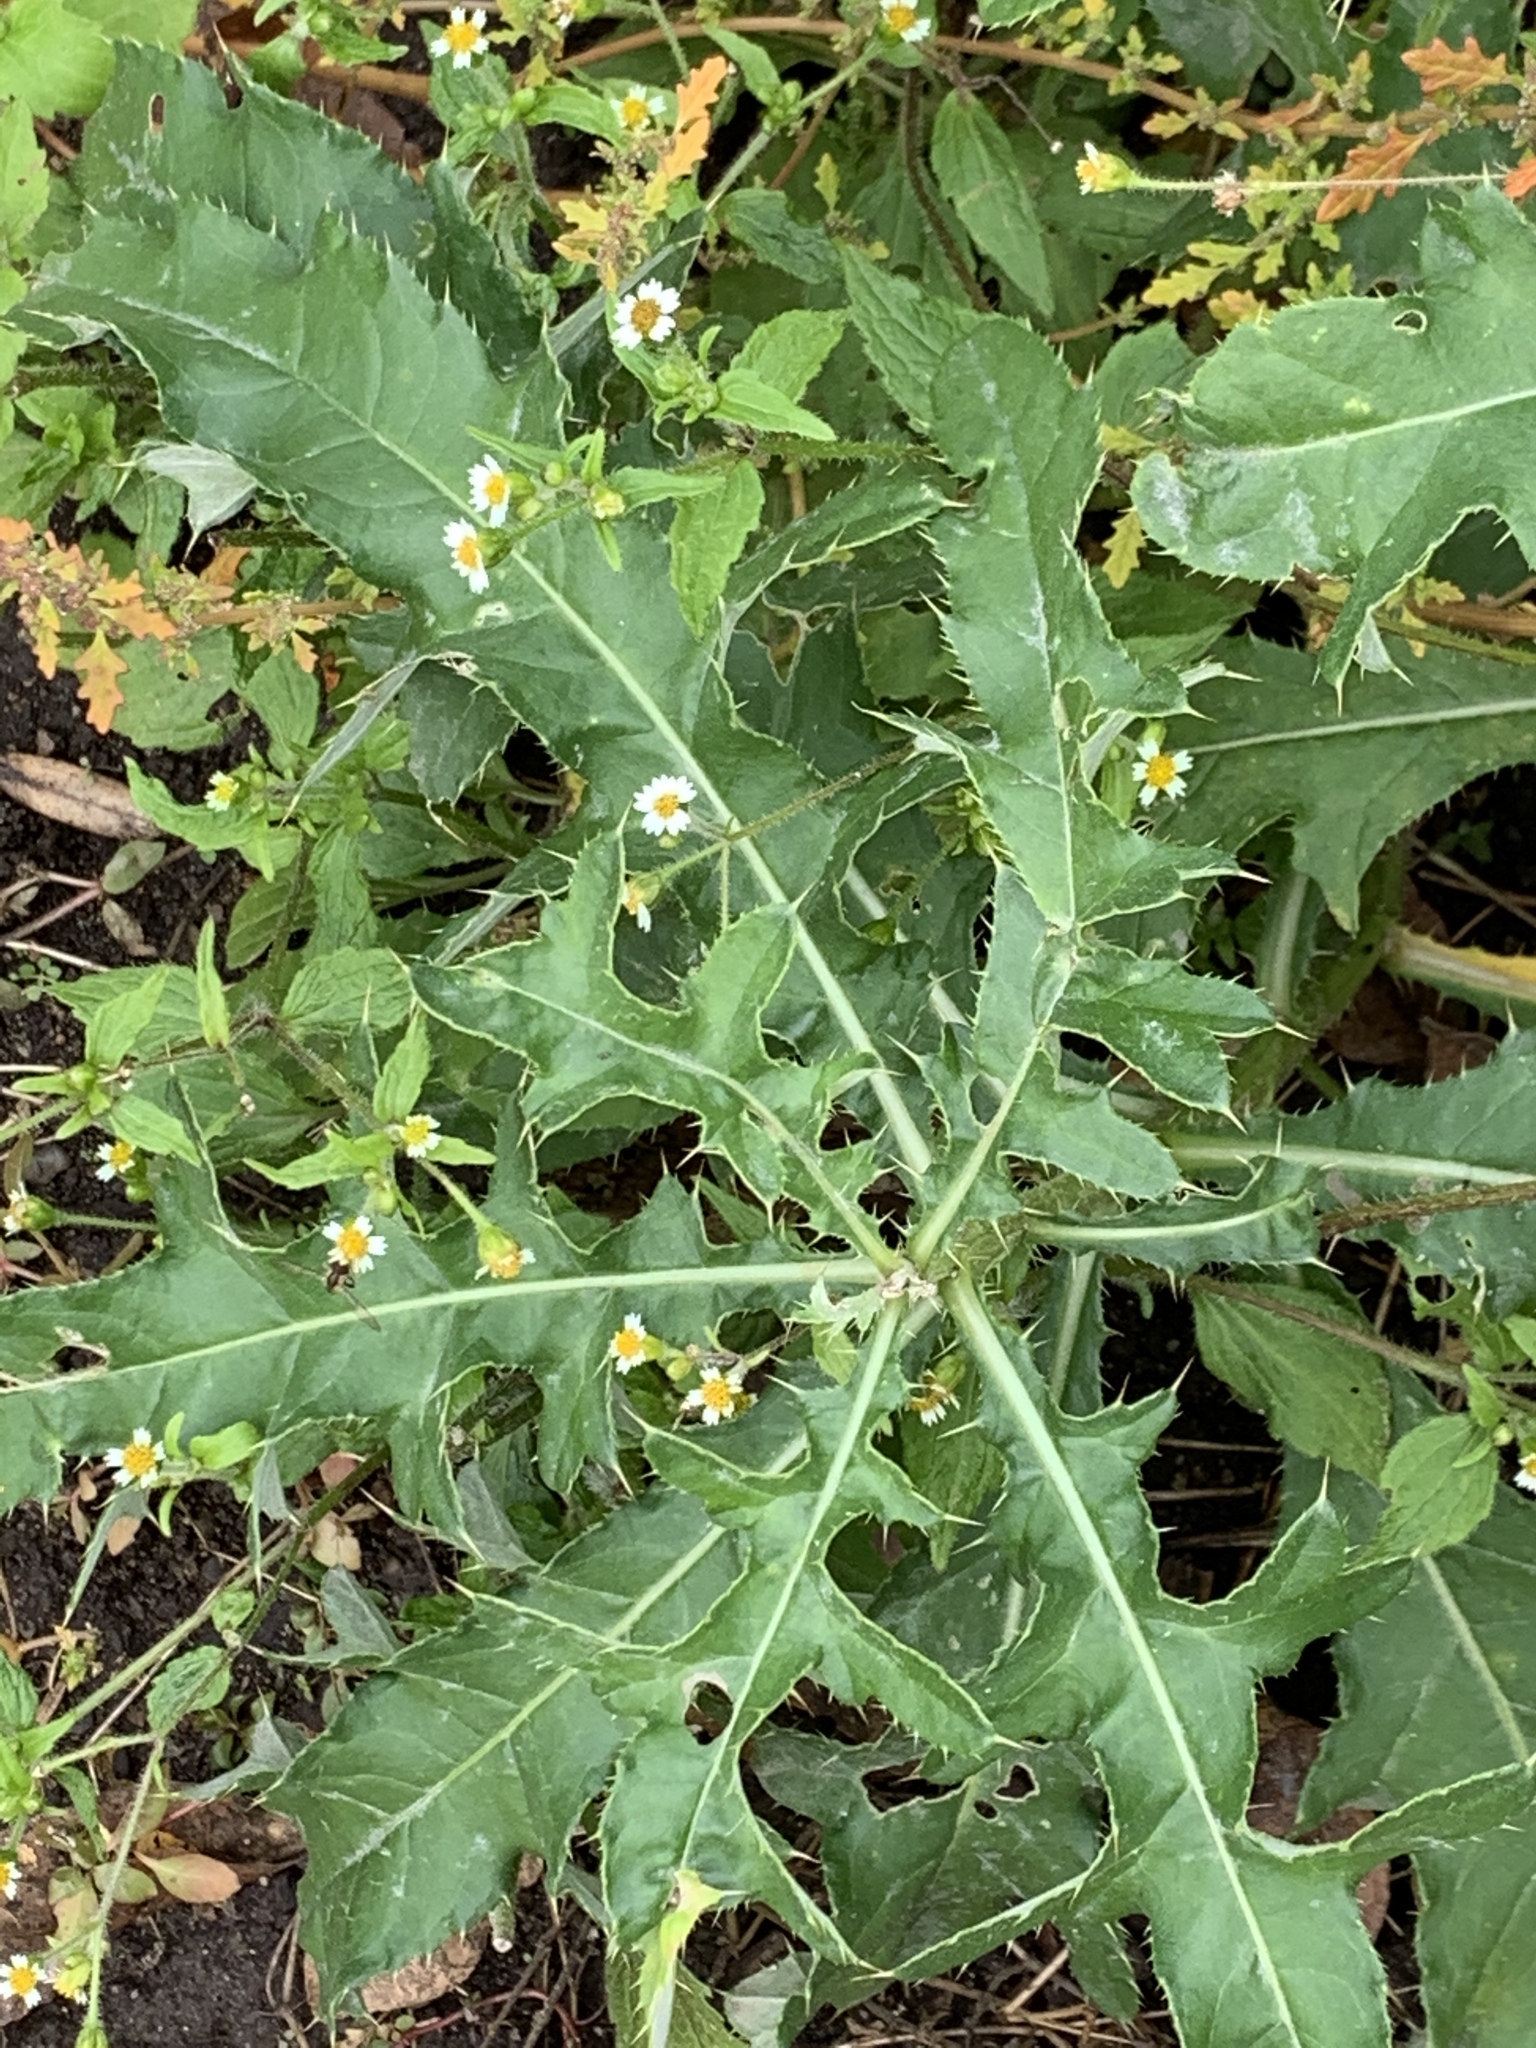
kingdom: Plantae
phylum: Tracheophyta
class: Magnoliopsida
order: Asterales
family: Asteraceae
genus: Cirsium
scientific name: Cirsium arvense
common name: Creeping thistle
